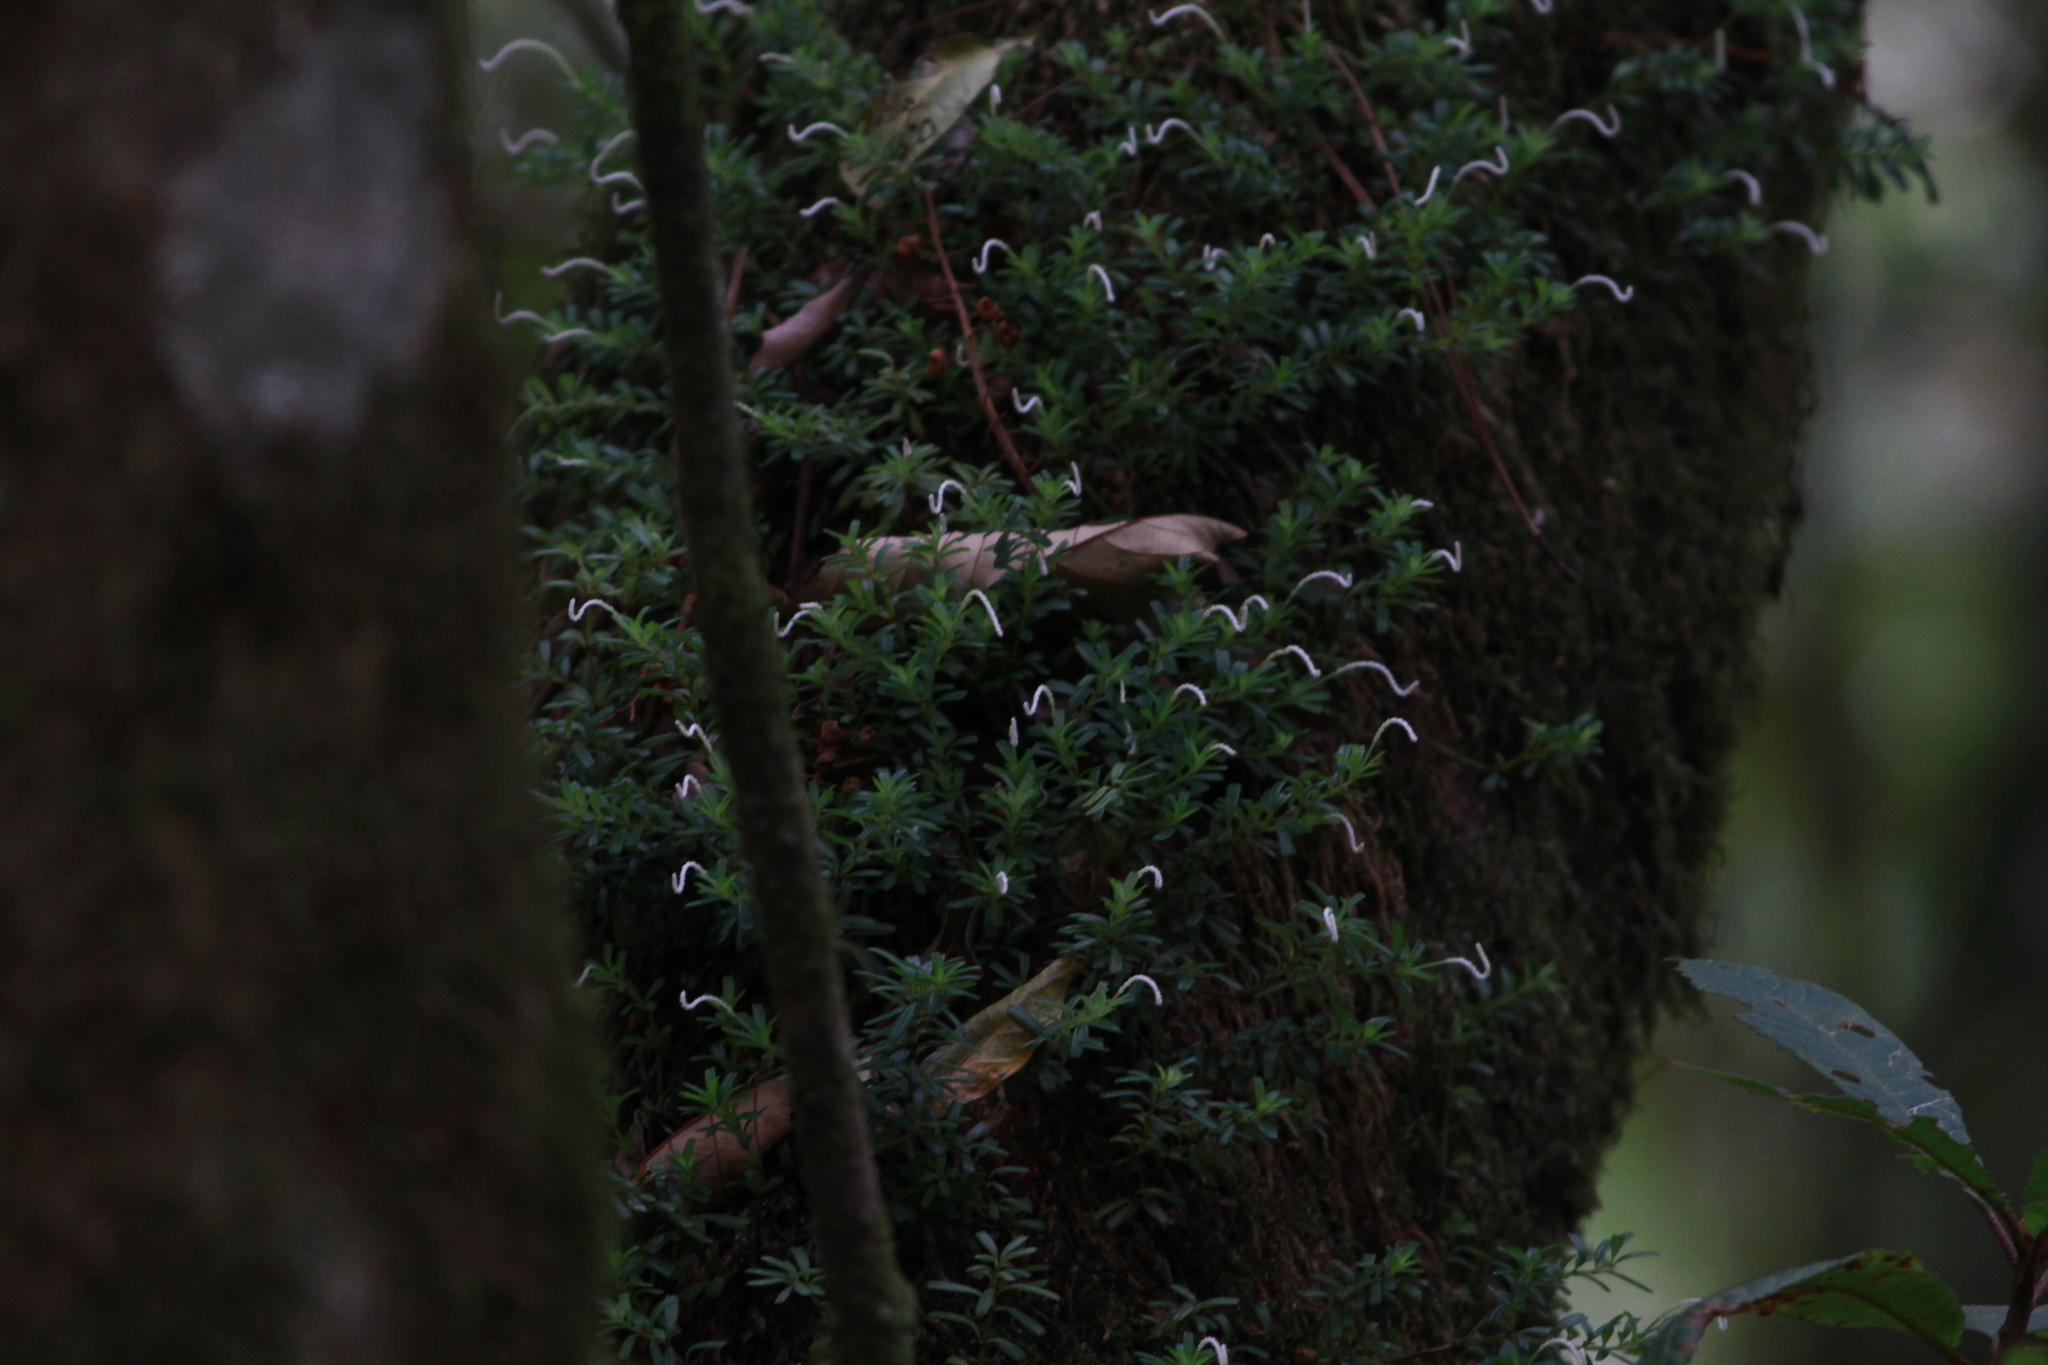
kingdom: Plantae
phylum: Tracheophyta
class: Magnoliopsida
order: Piperales
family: Piperaceae
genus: Peperomia
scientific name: Peperomia quadrifolia
